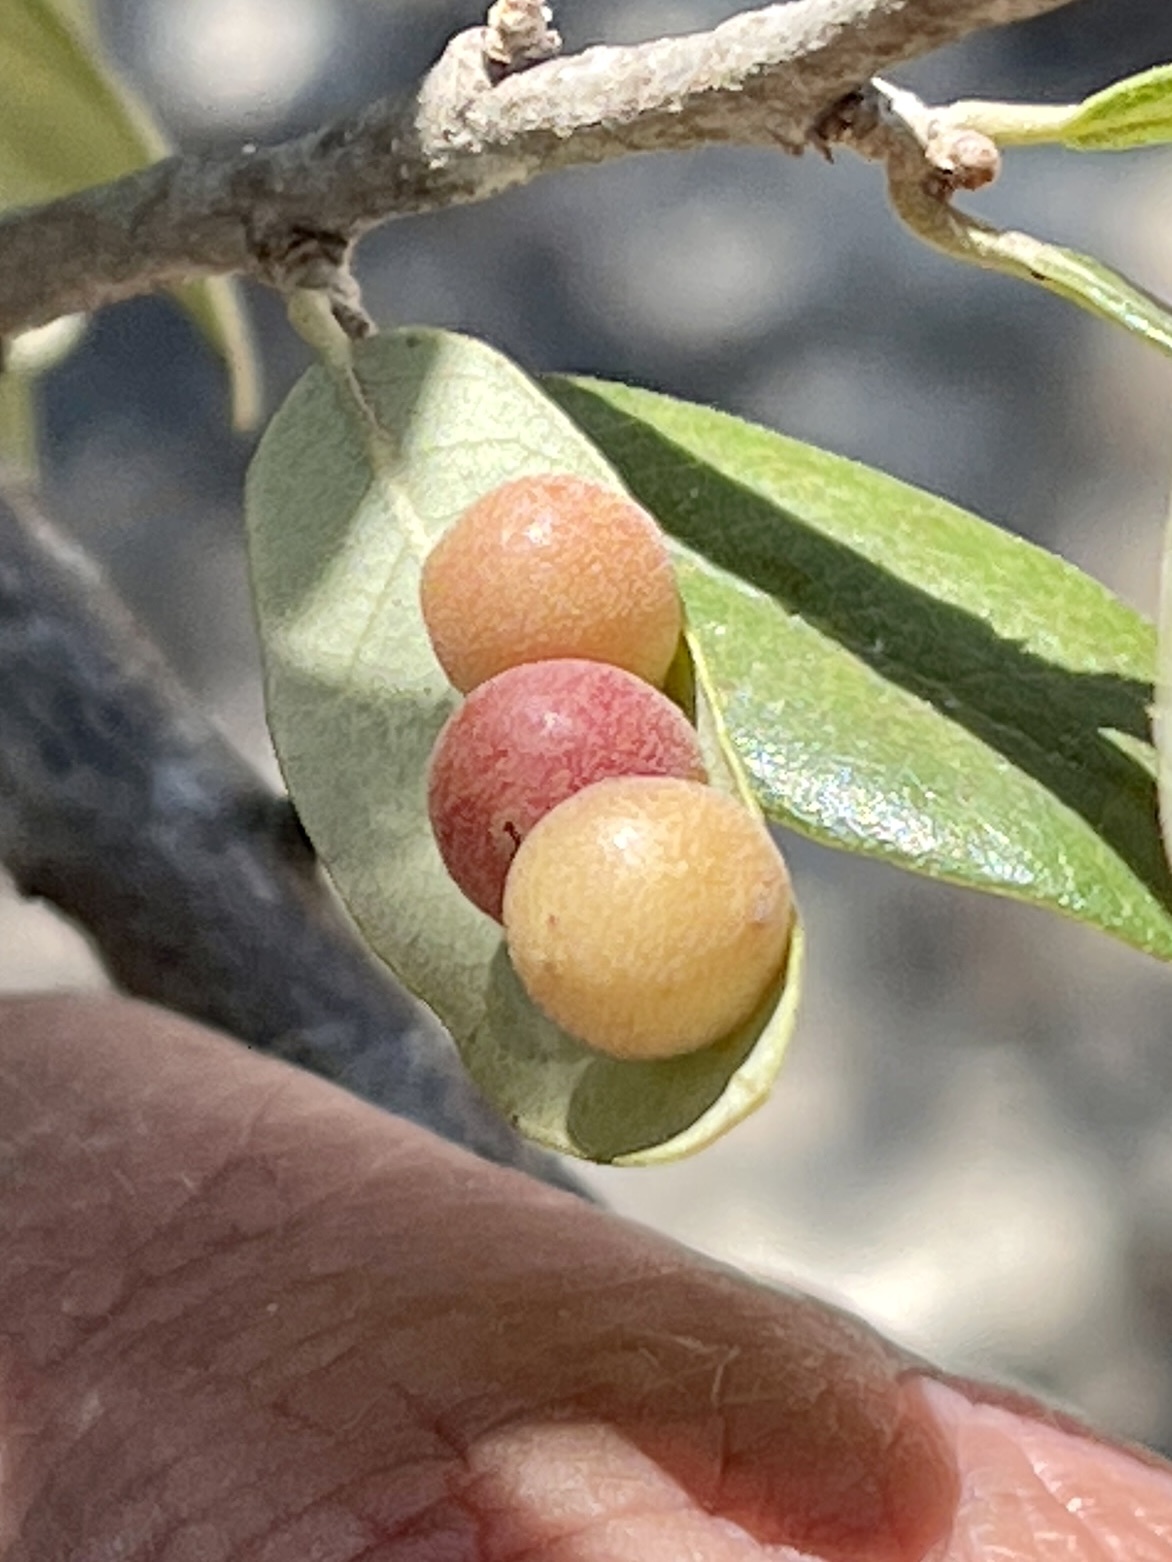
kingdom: Animalia
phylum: Arthropoda
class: Insecta
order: Hymenoptera
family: Cynipidae
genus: Belonocnema
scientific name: Belonocnema kinseyi
